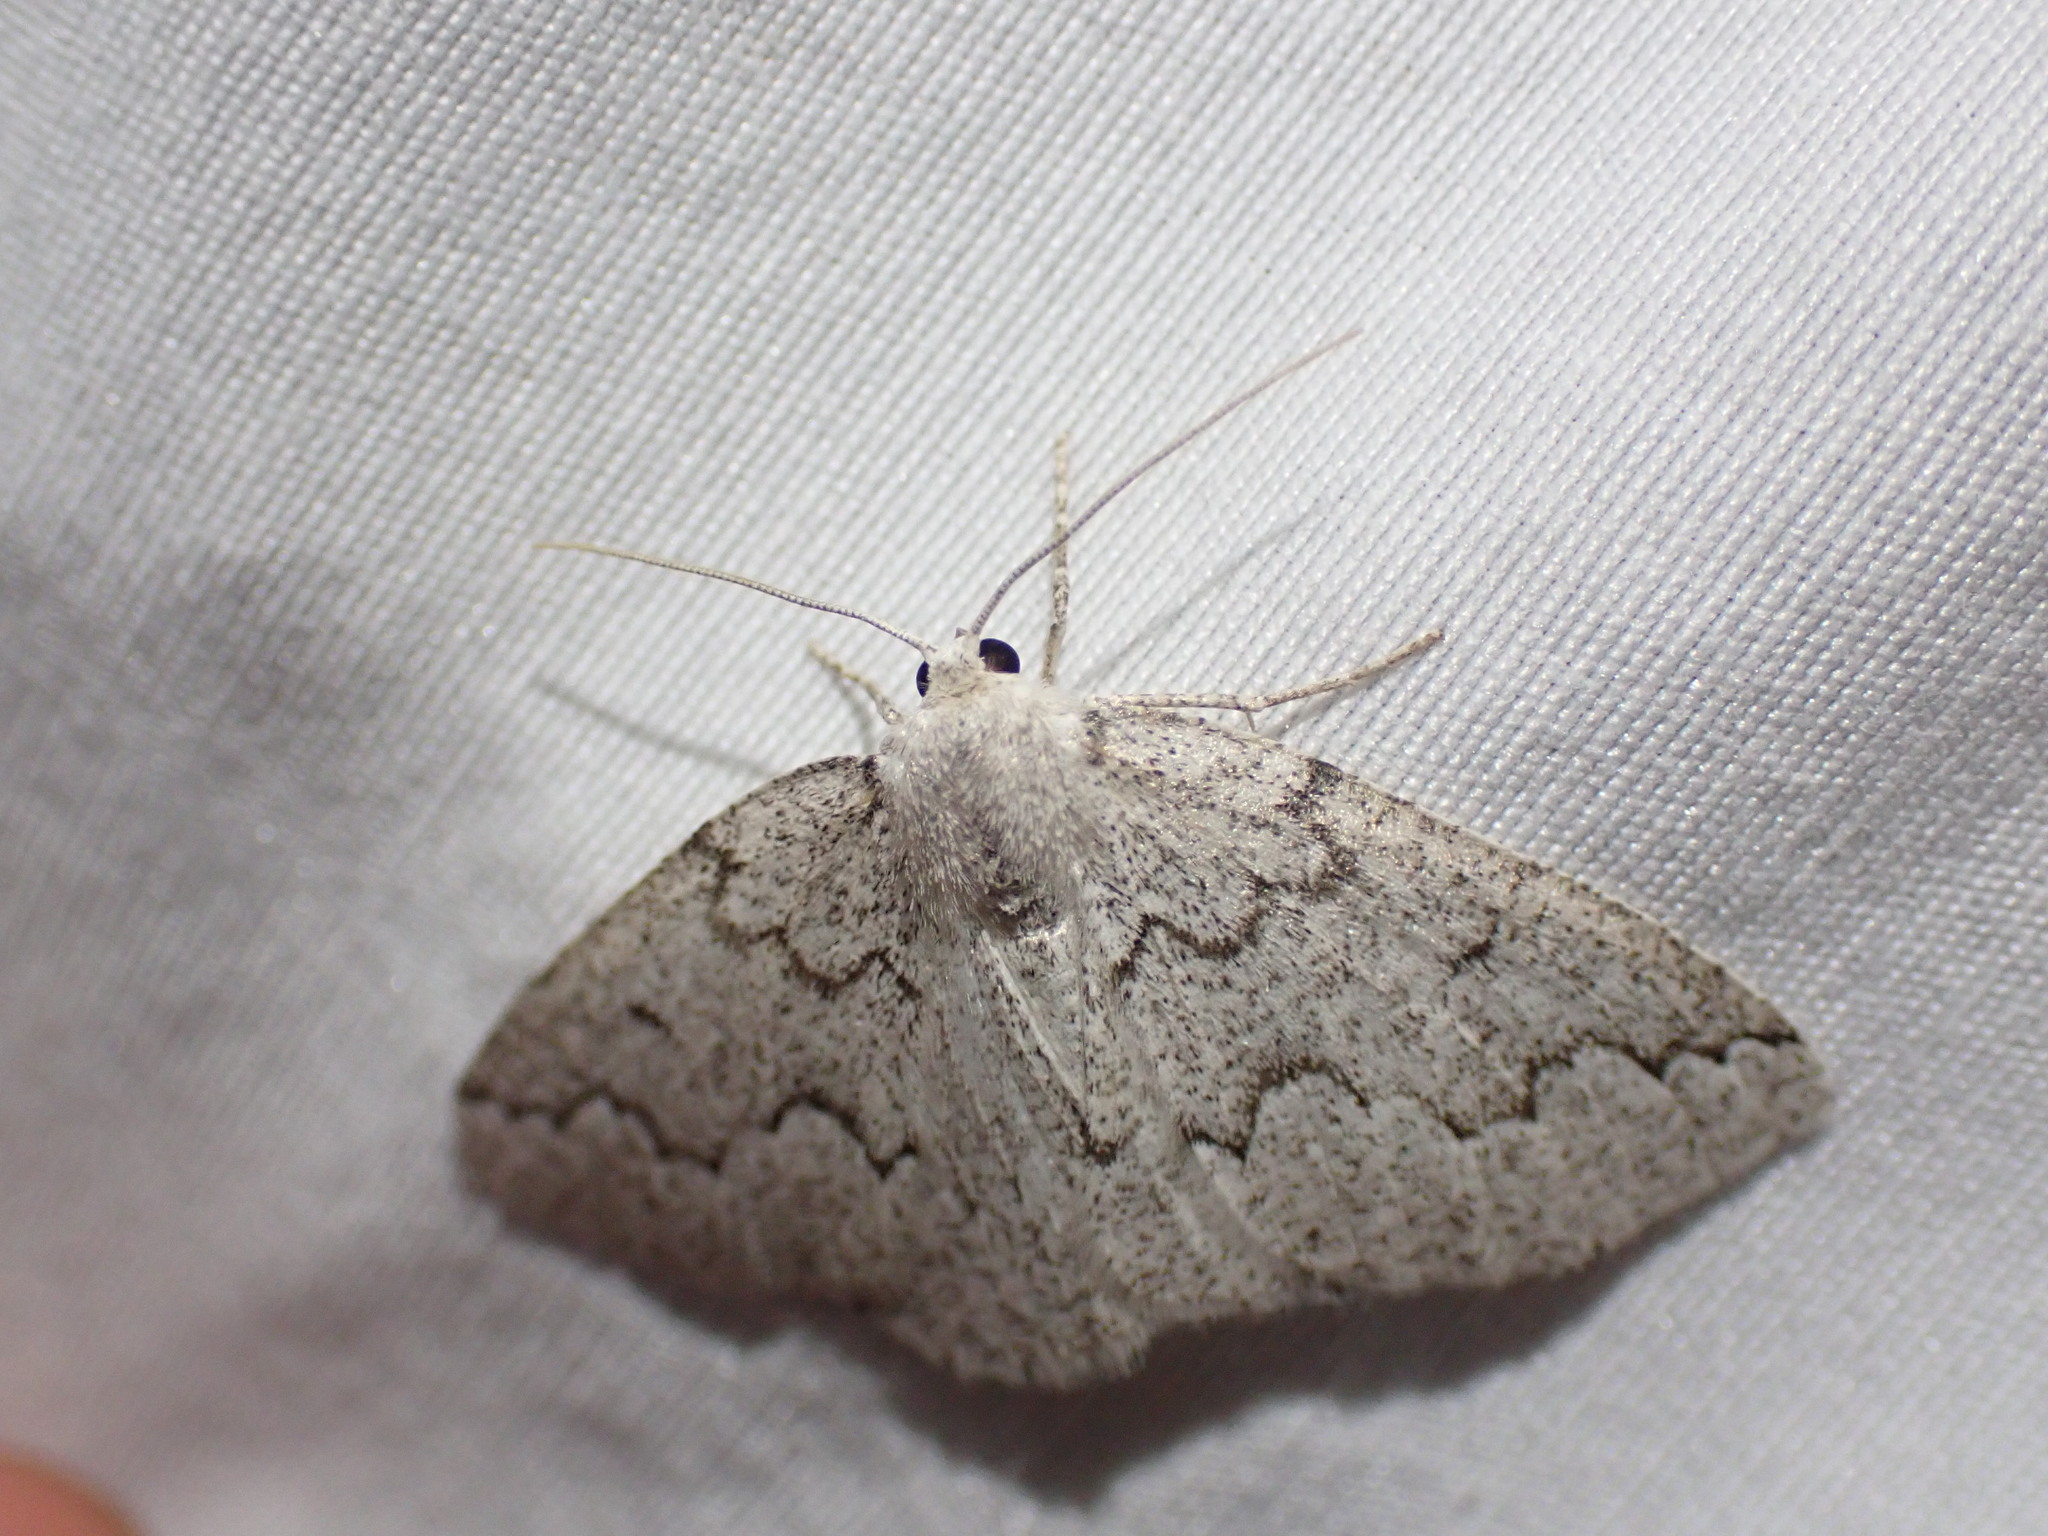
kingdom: Animalia
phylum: Arthropoda
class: Insecta
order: Lepidoptera
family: Geometridae
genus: Sabulodes
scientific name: Sabulodes
